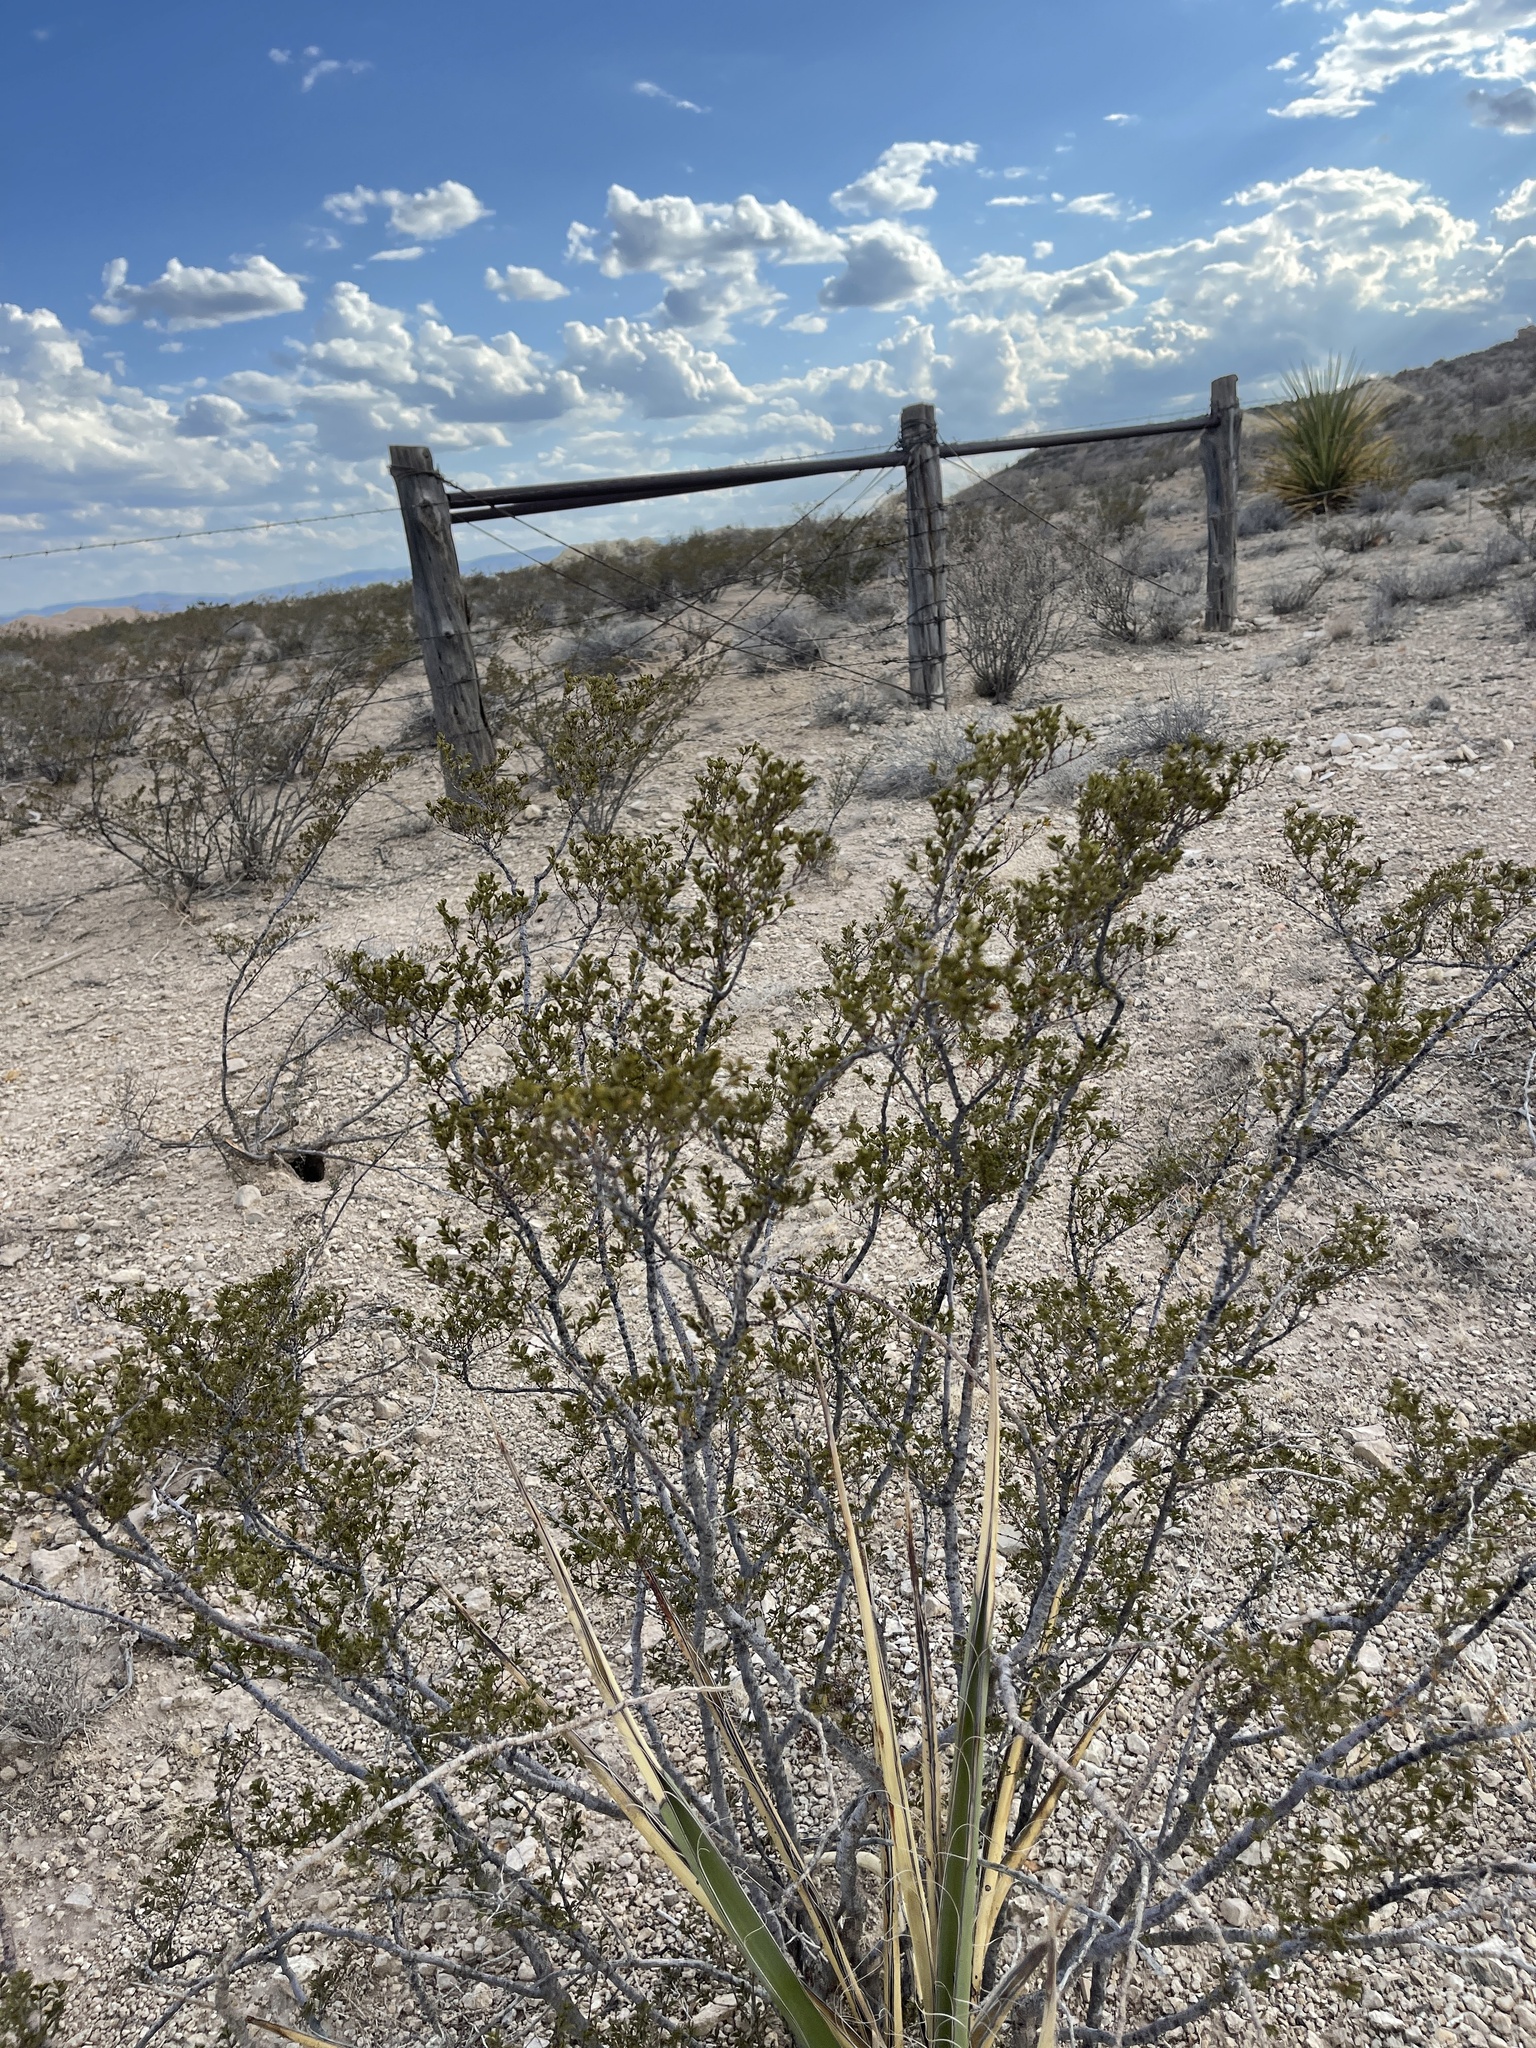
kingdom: Plantae
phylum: Tracheophyta
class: Magnoliopsida
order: Zygophyllales
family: Zygophyllaceae
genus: Larrea
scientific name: Larrea tridentata
